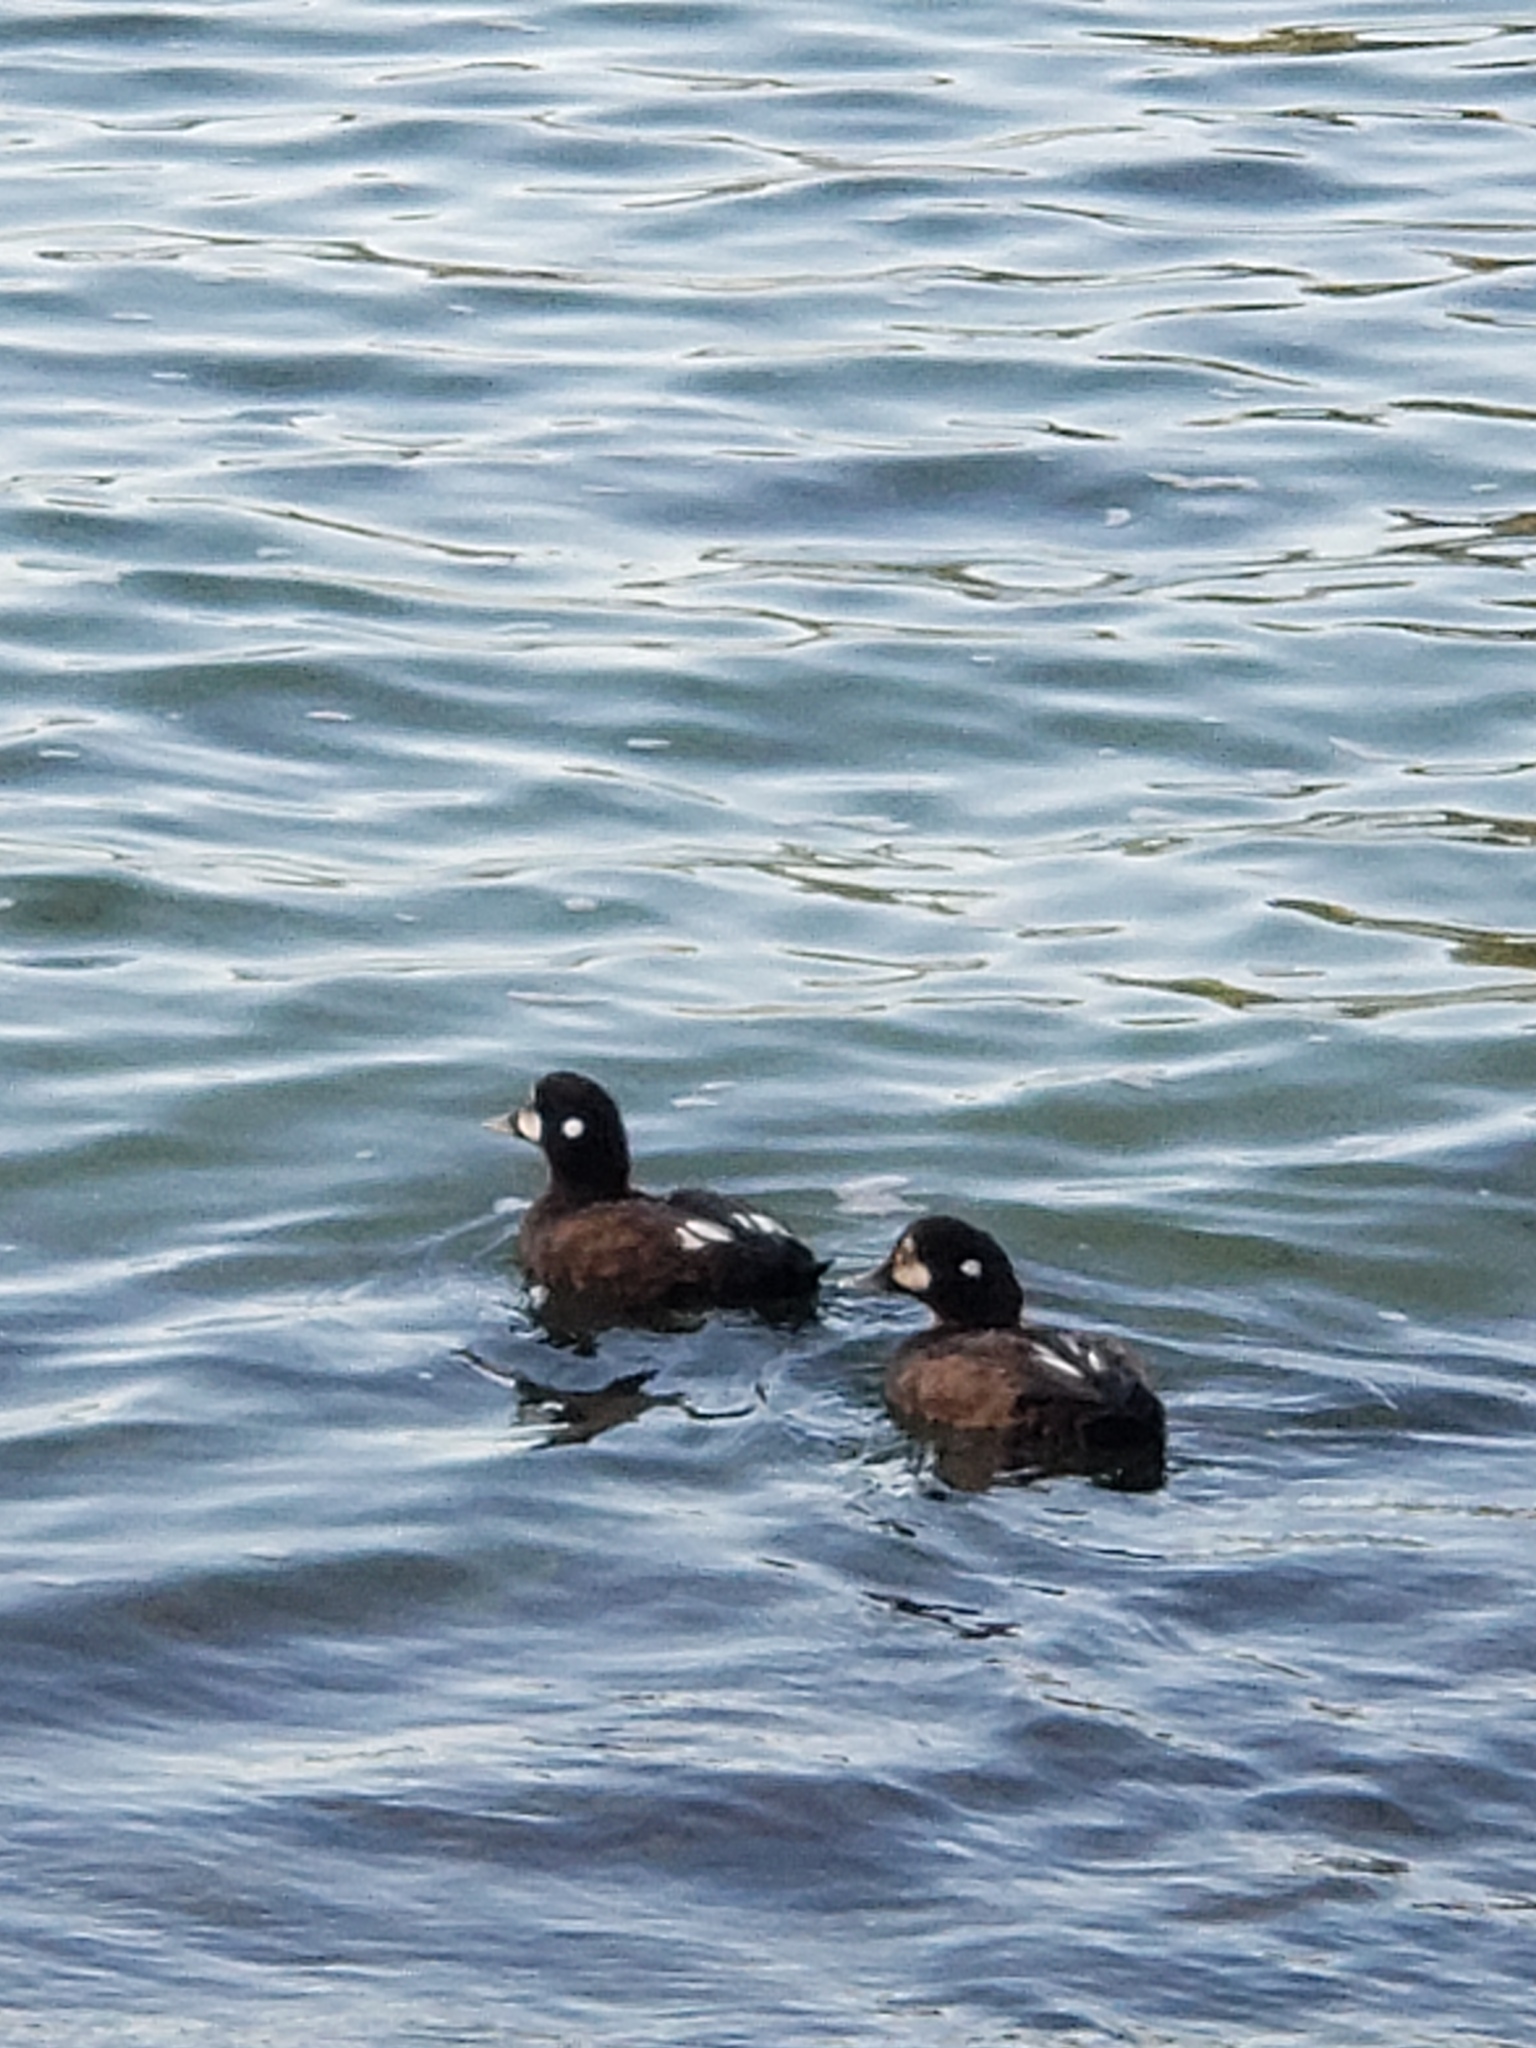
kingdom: Animalia
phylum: Chordata
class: Aves
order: Anseriformes
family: Anatidae
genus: Histrionicus
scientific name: Histrionicus histrionicus
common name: Harlequin duck
